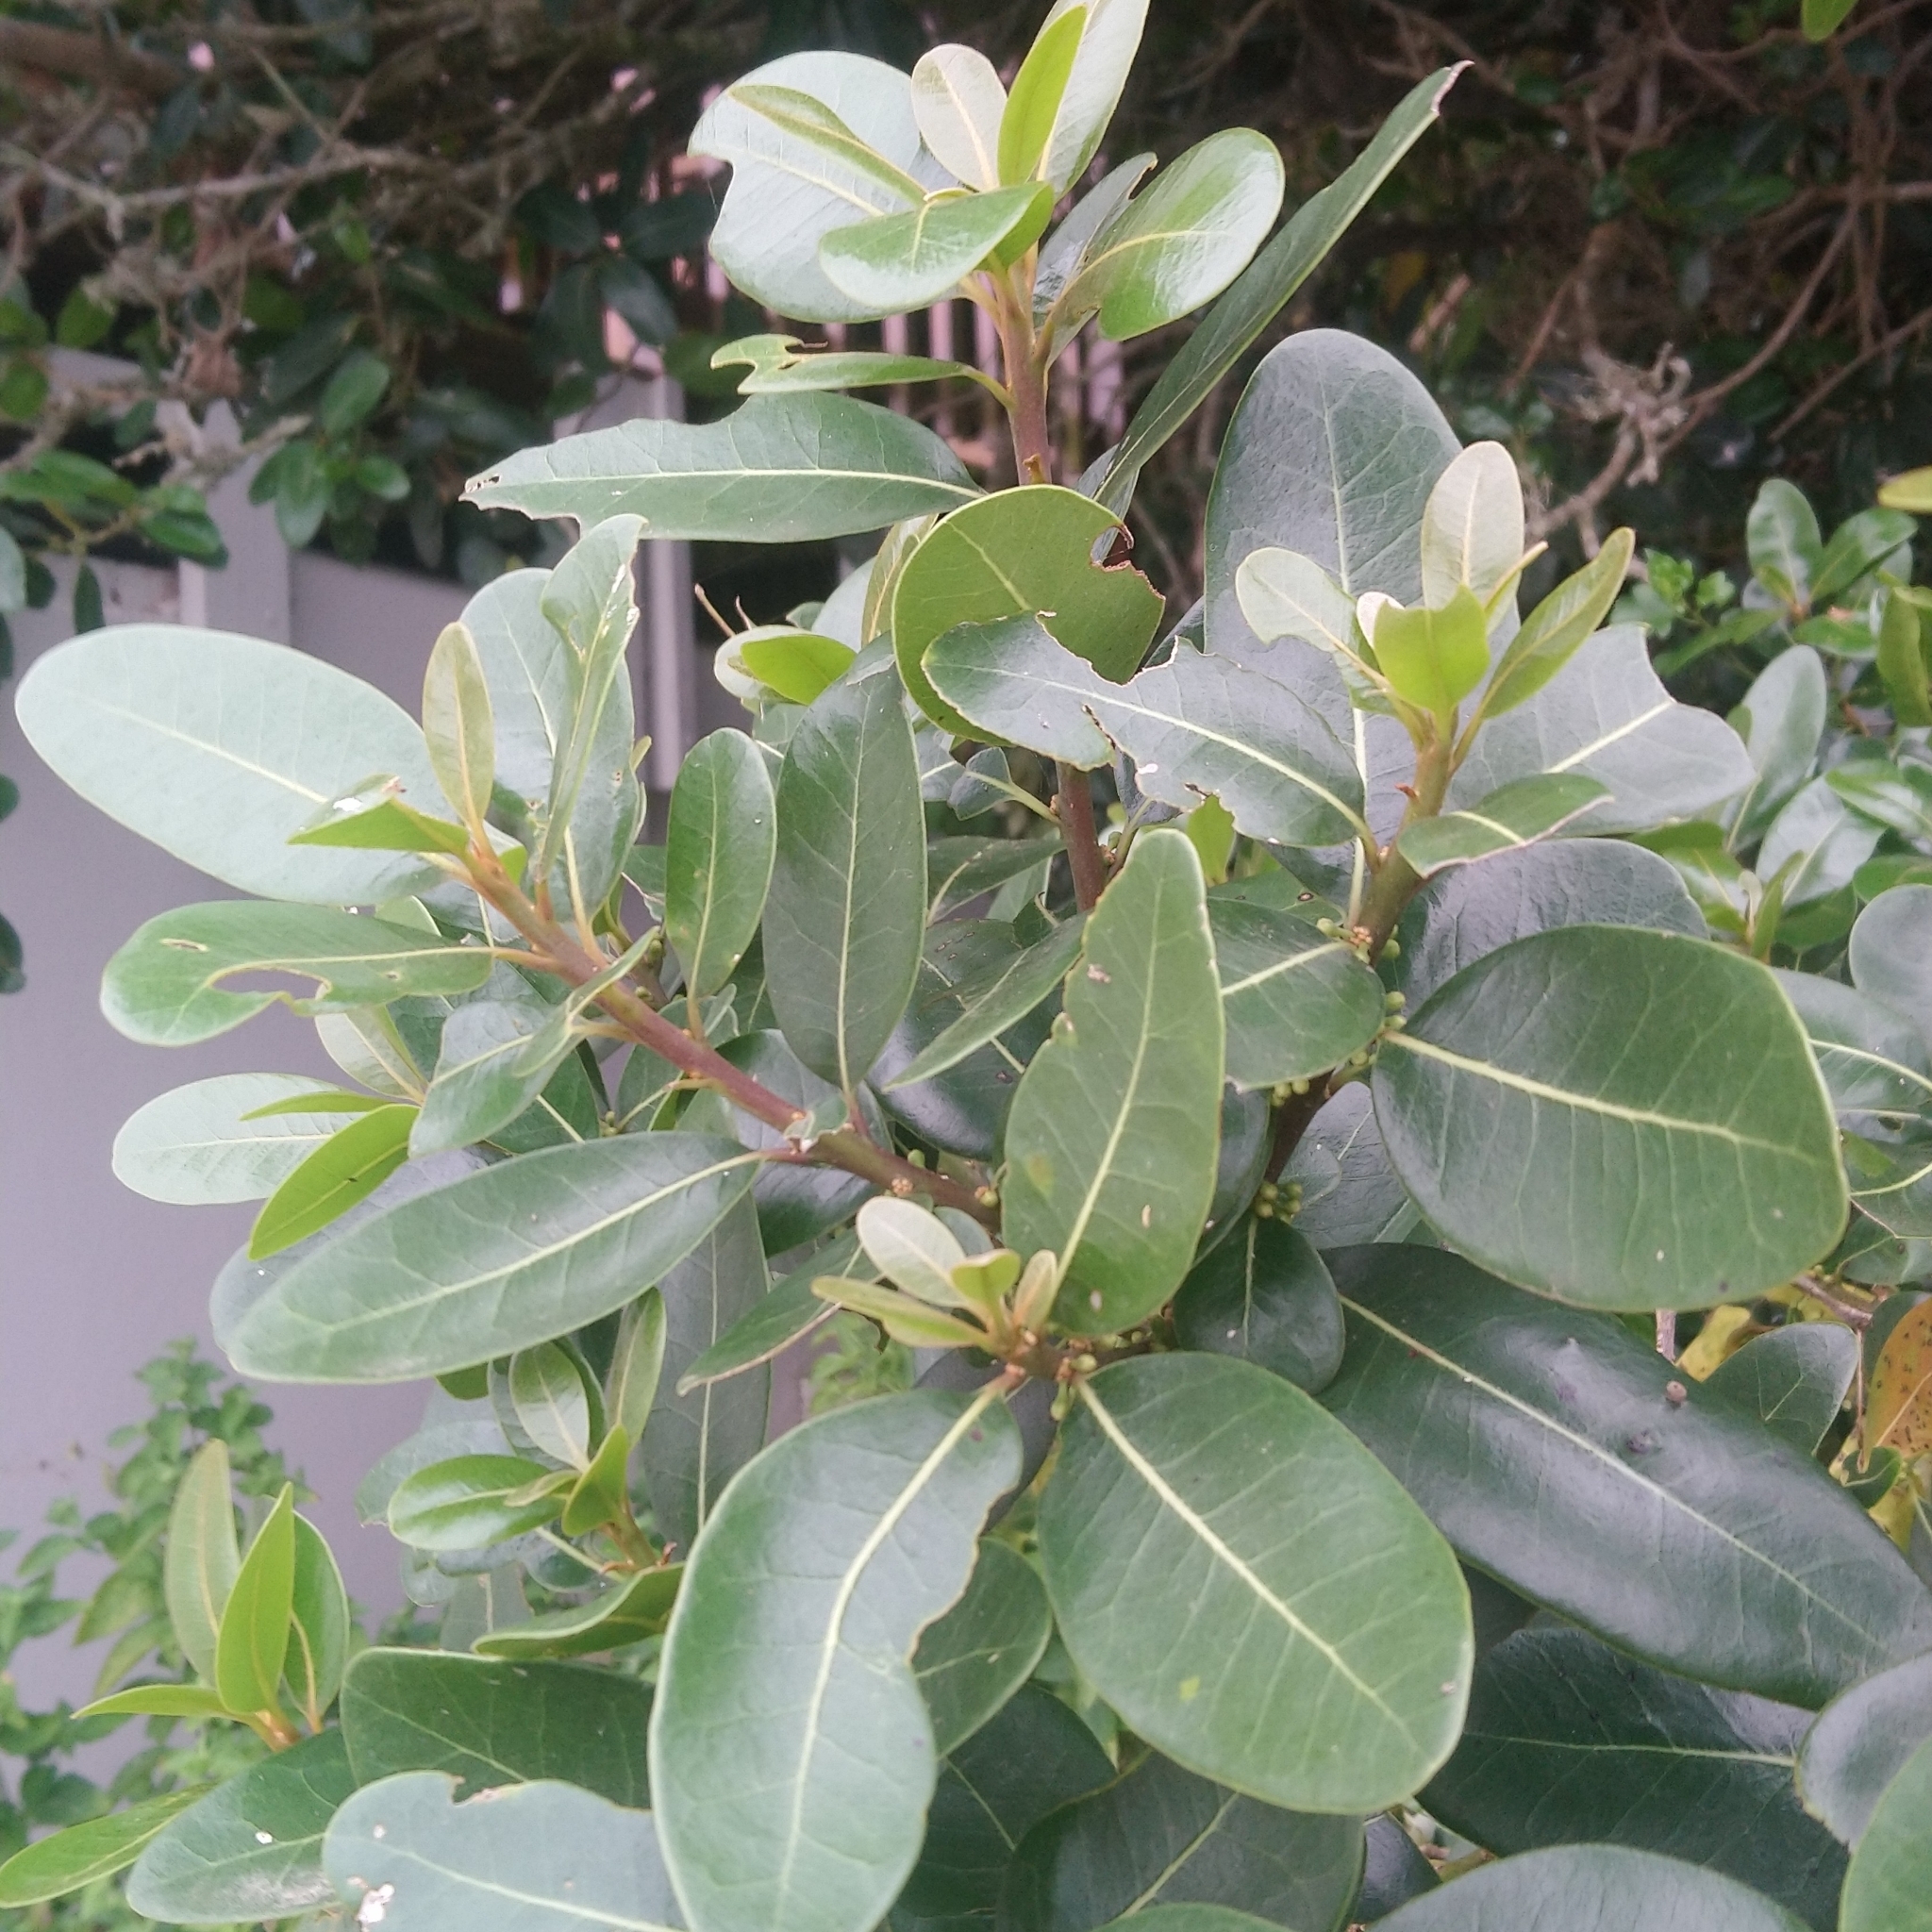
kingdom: Plantae
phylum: Tracheophyta
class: Magnoliopsida
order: Ericales
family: Sapotaceae
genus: Sideroxylon
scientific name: Sideroxylon inerme
